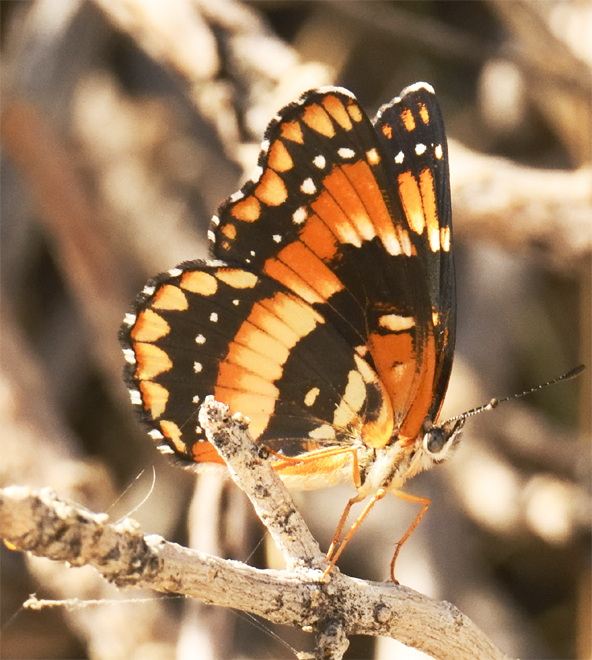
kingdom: Animalia
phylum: Arthropoda
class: Insecta
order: Lepidoptera
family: Nymphalidae
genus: Chlosyne
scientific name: Chlosyne californica
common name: California patch
